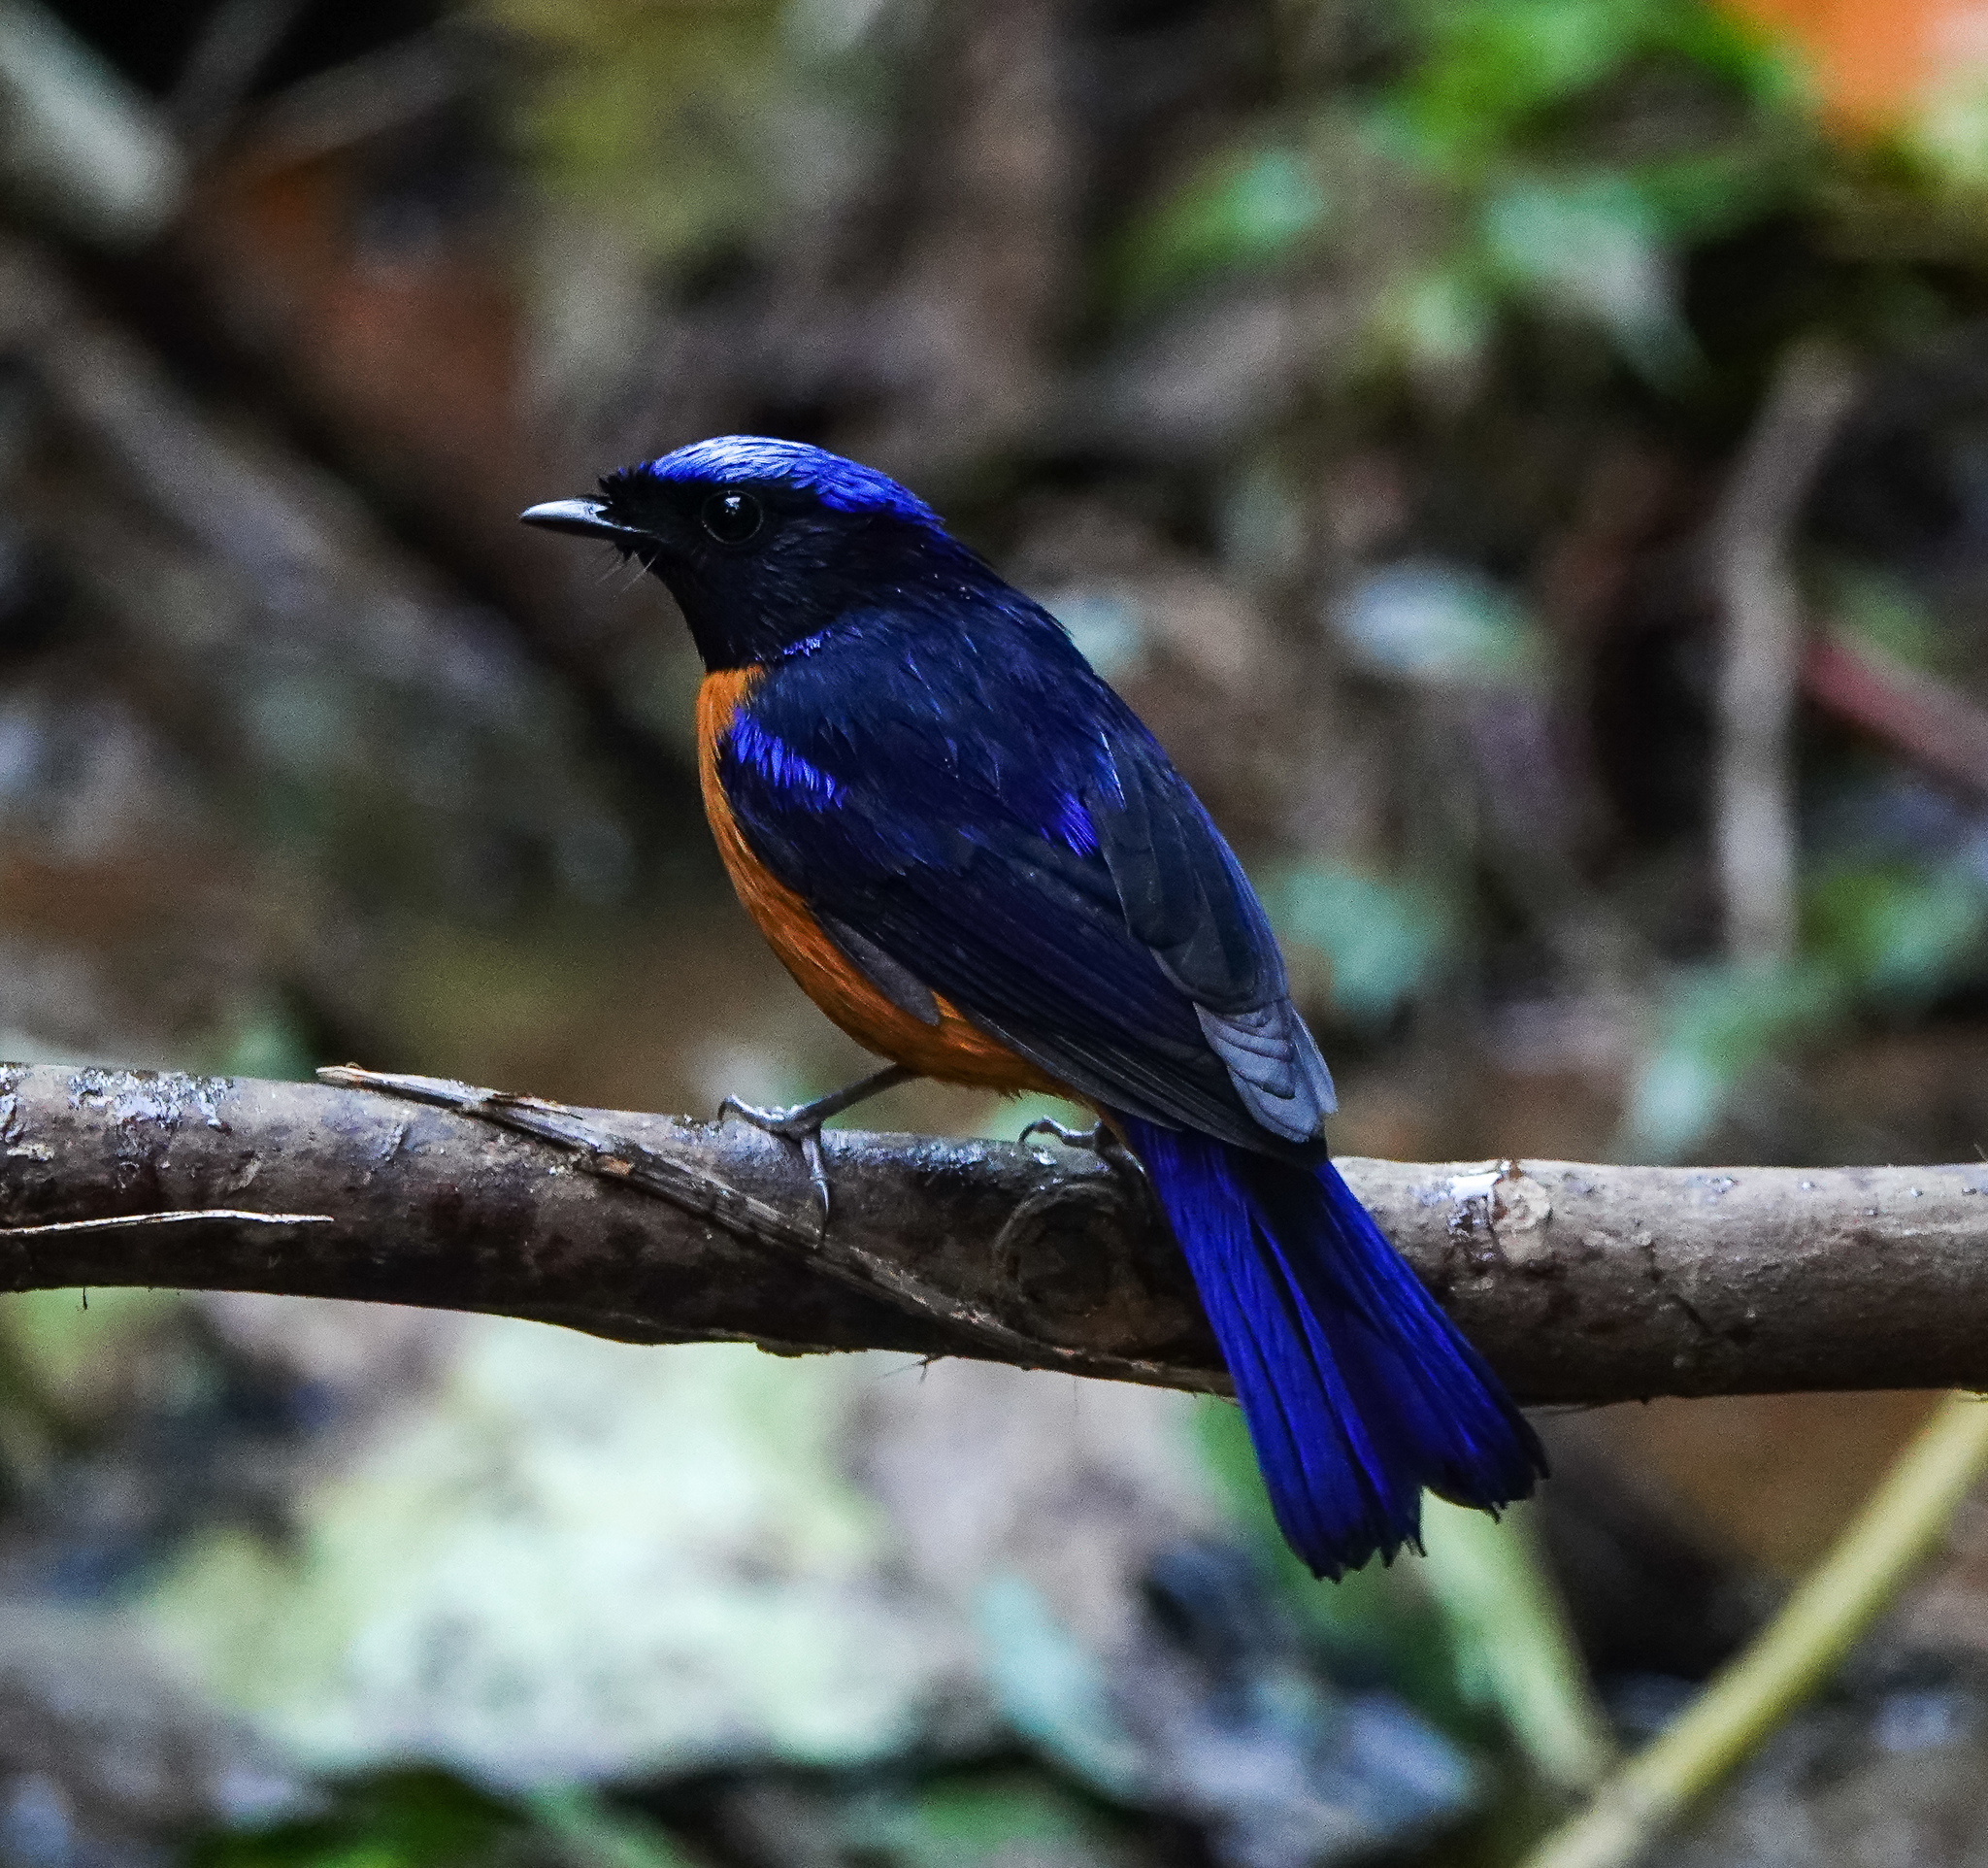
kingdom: Animalia
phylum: Chordata
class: Aves
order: Passeriformes
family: Muscicapidae
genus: Niltava
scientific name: Niltava sundara
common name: Rufous-bellied niltava
